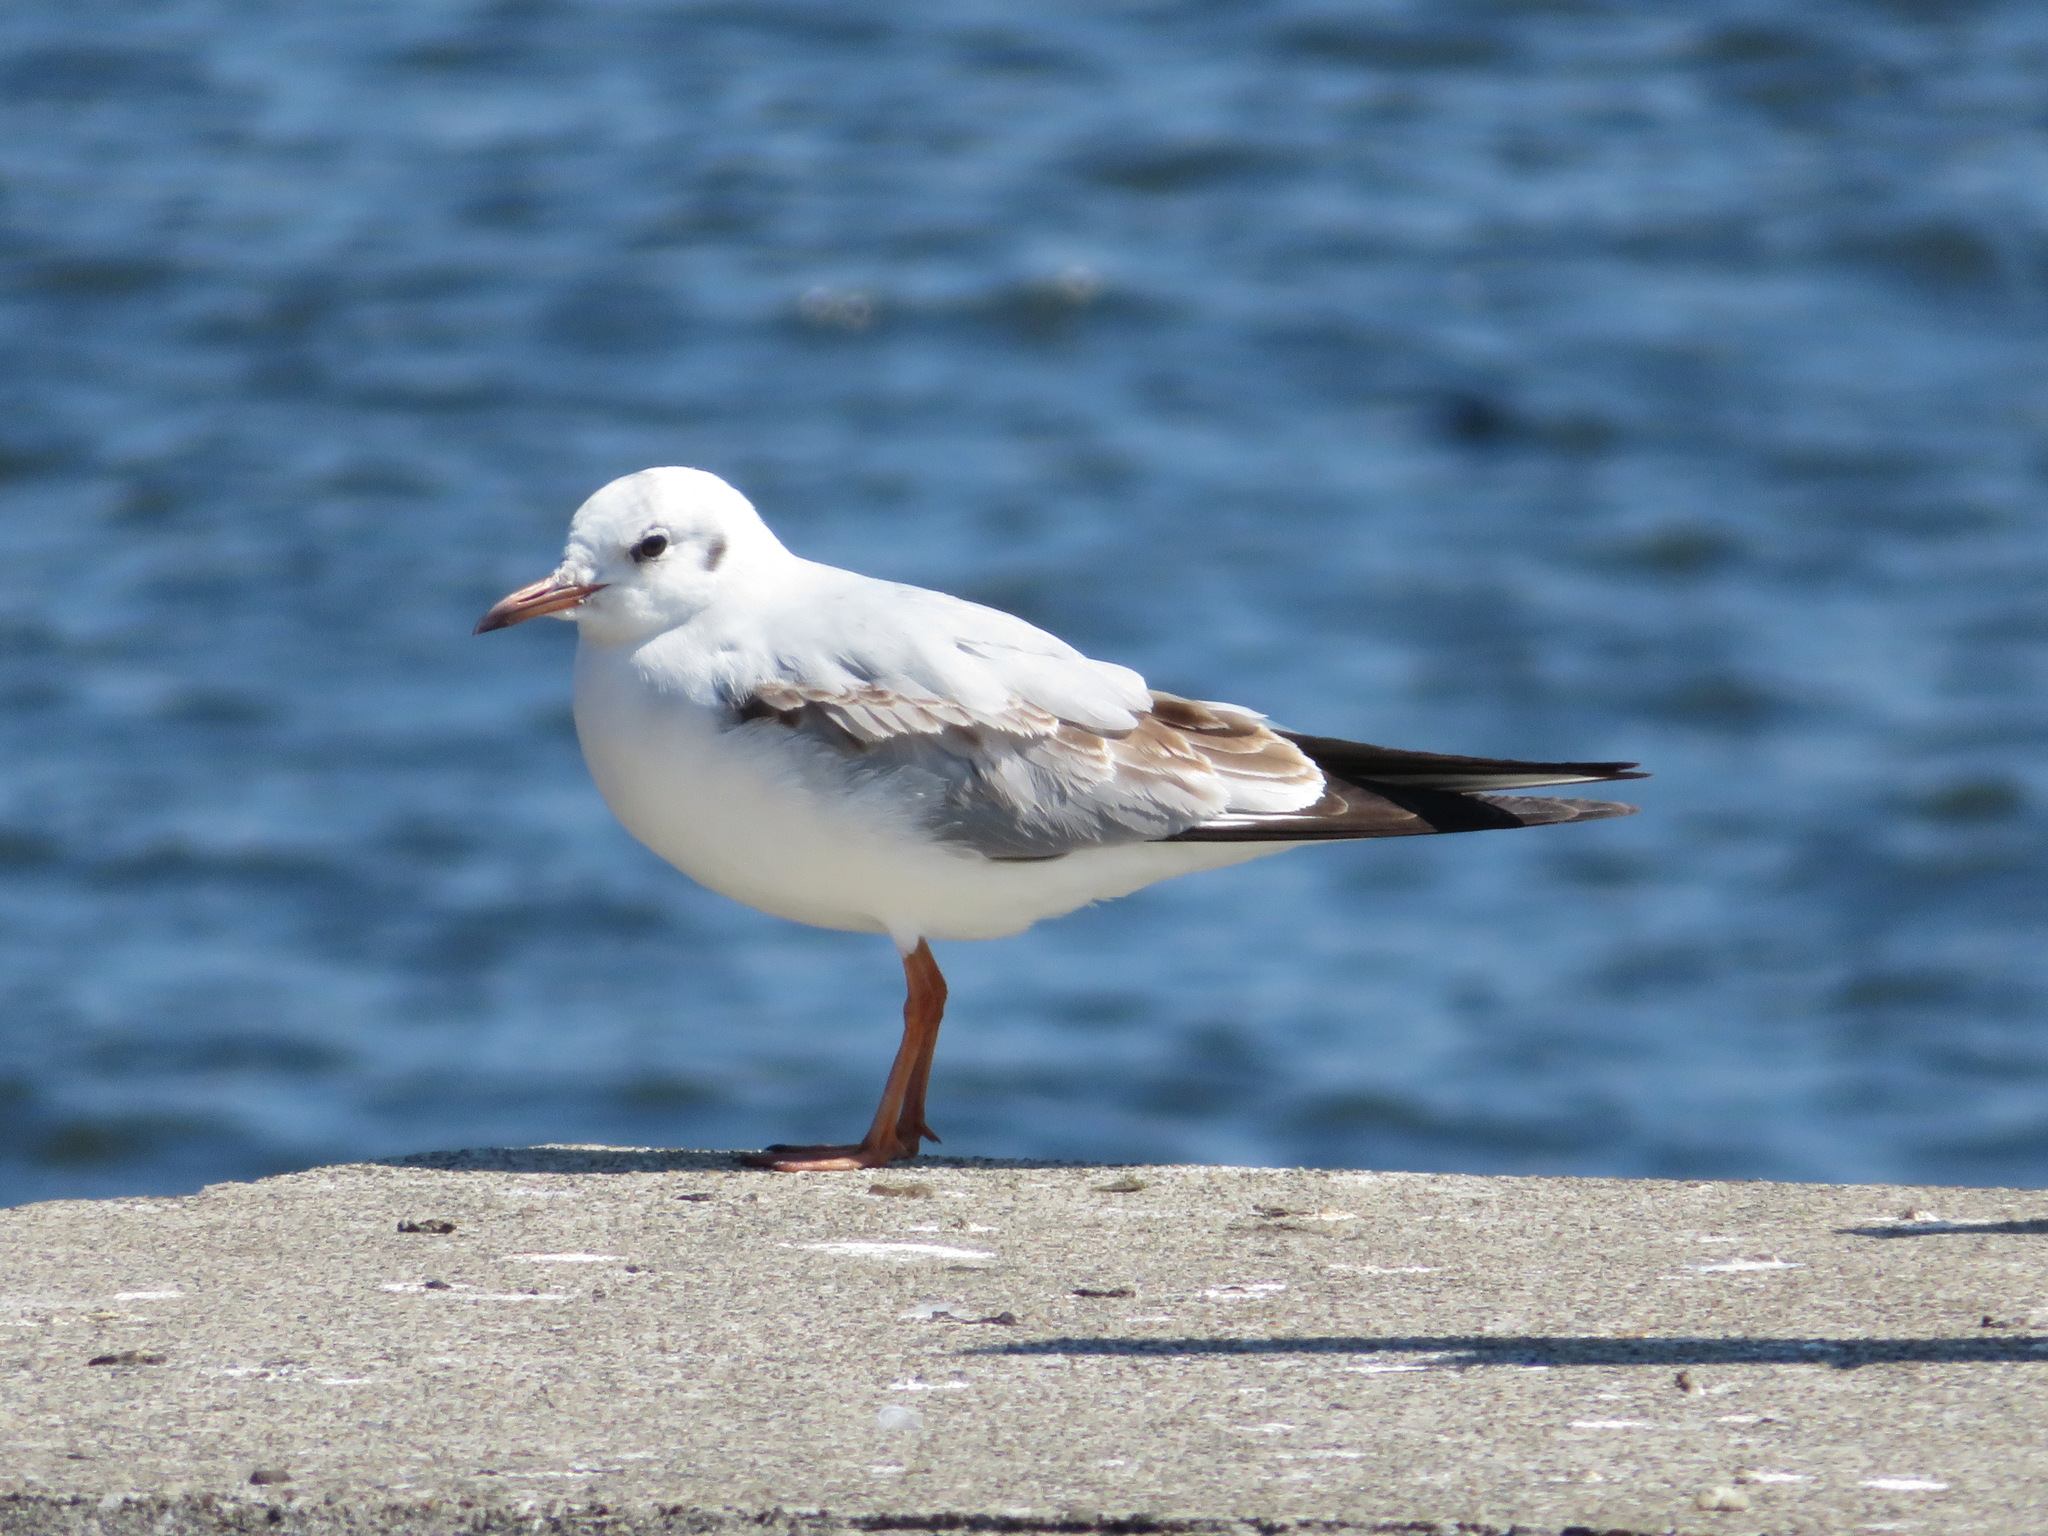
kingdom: Animalia
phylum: Chordata
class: Aves
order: Charadriiformes
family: Laridae
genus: Chroicocephalus
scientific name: Chroicocephalus ridibundus
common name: Black-headed gull
